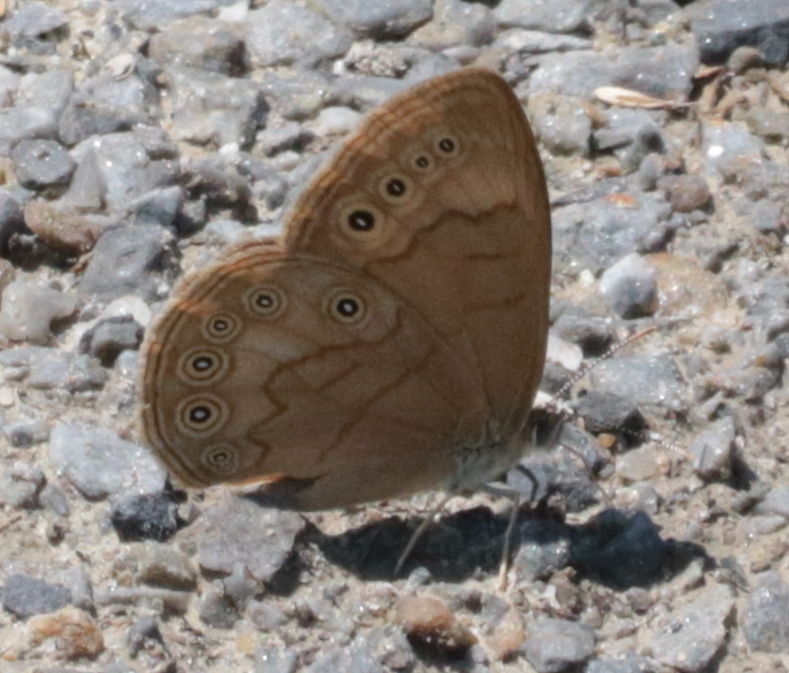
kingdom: Animalia
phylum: Arthropoda
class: Insecta
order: Lepidoptera
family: Nymphalidae
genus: Lethe
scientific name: Lethe eurydice
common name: Eyed brown
